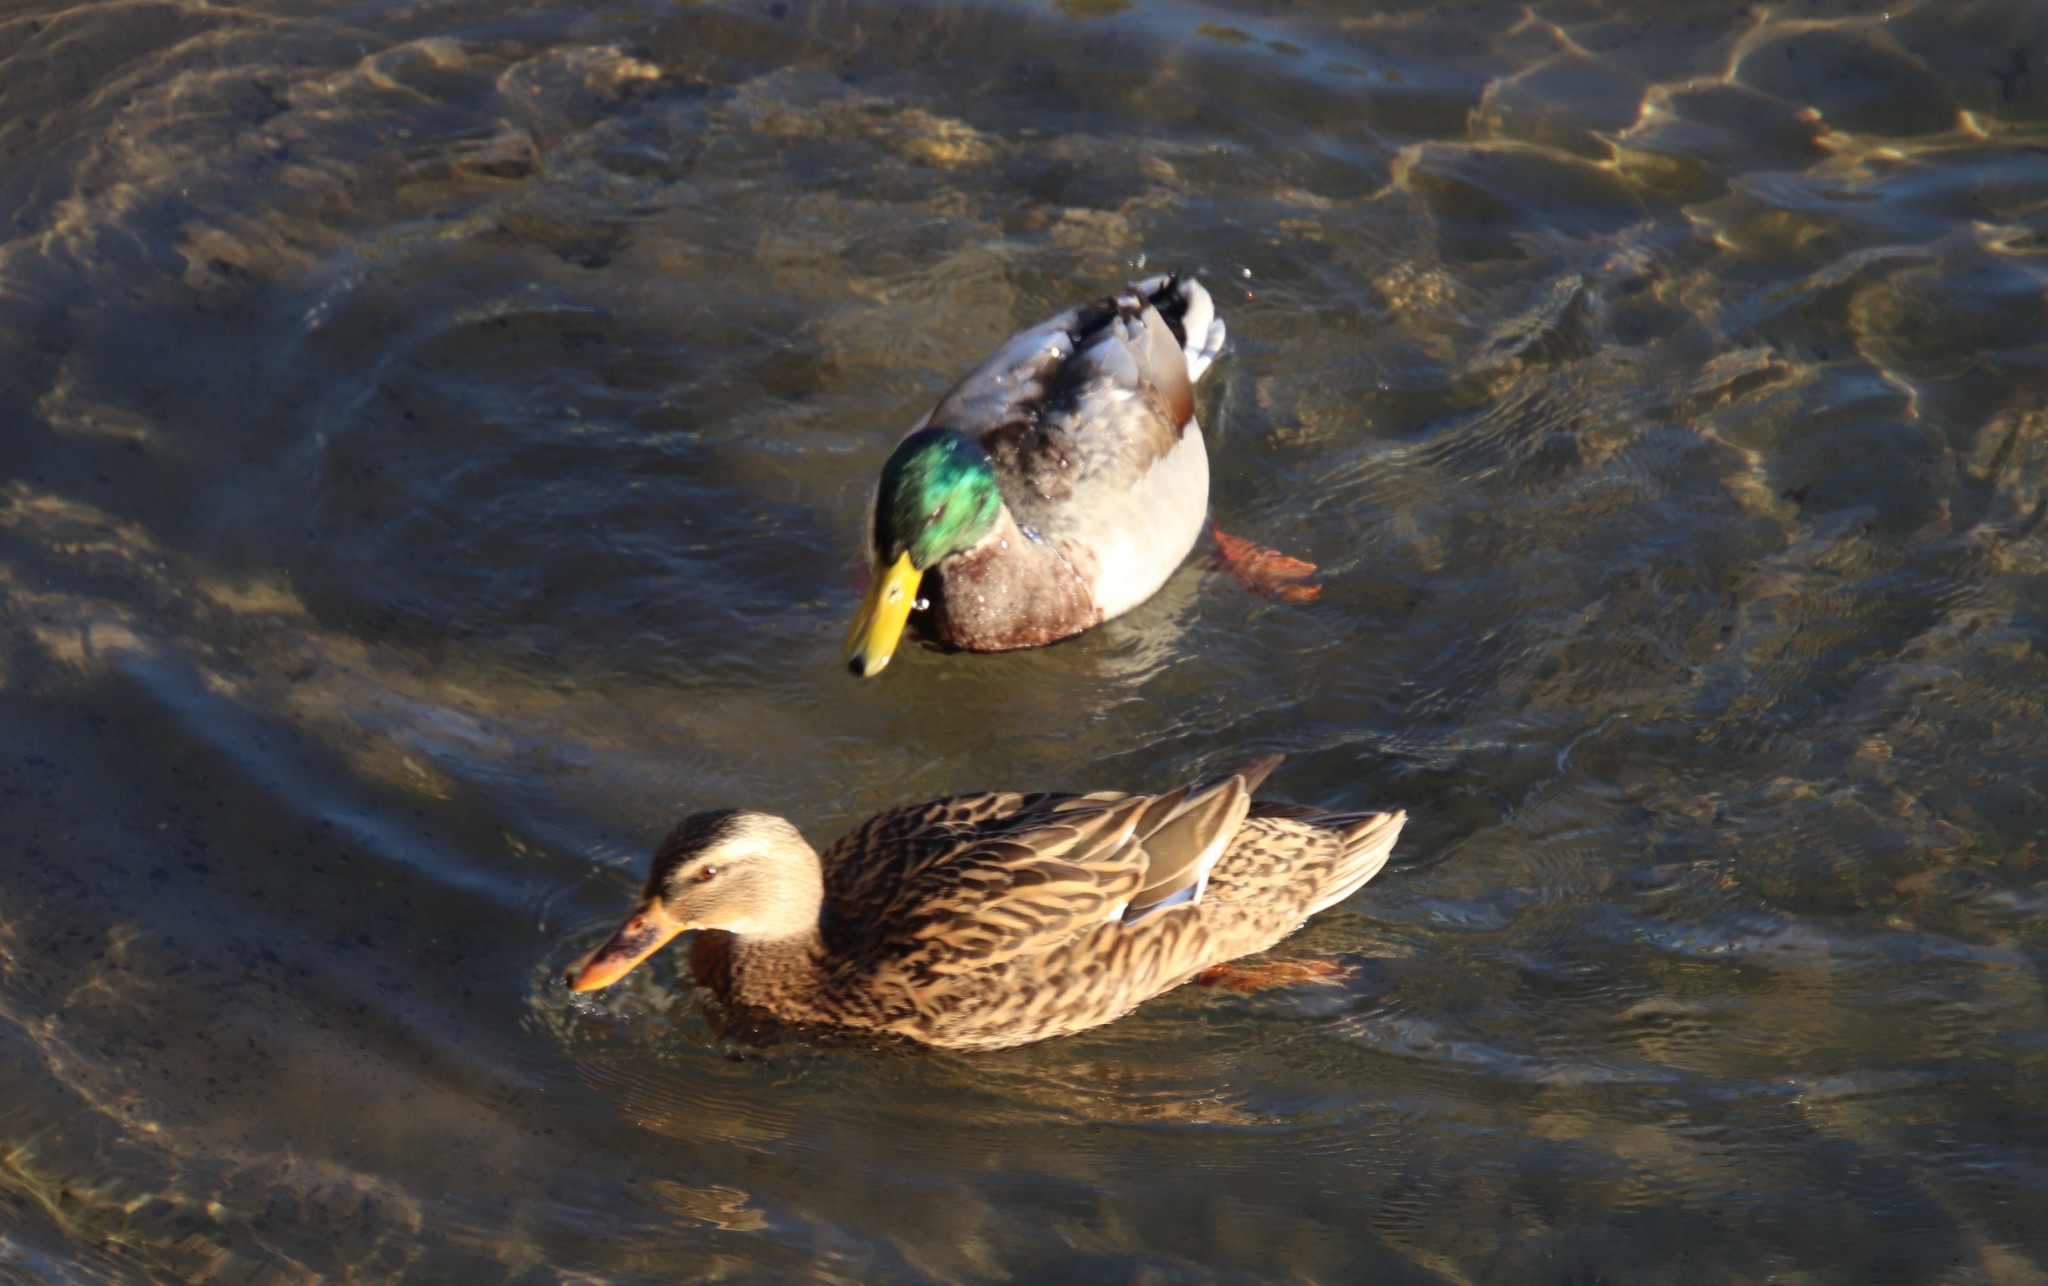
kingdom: Animalia
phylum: Chordata
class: Aves
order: Anseriformes
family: Anatidae
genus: Anas
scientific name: Anas platyrhynchos
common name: Mallard
